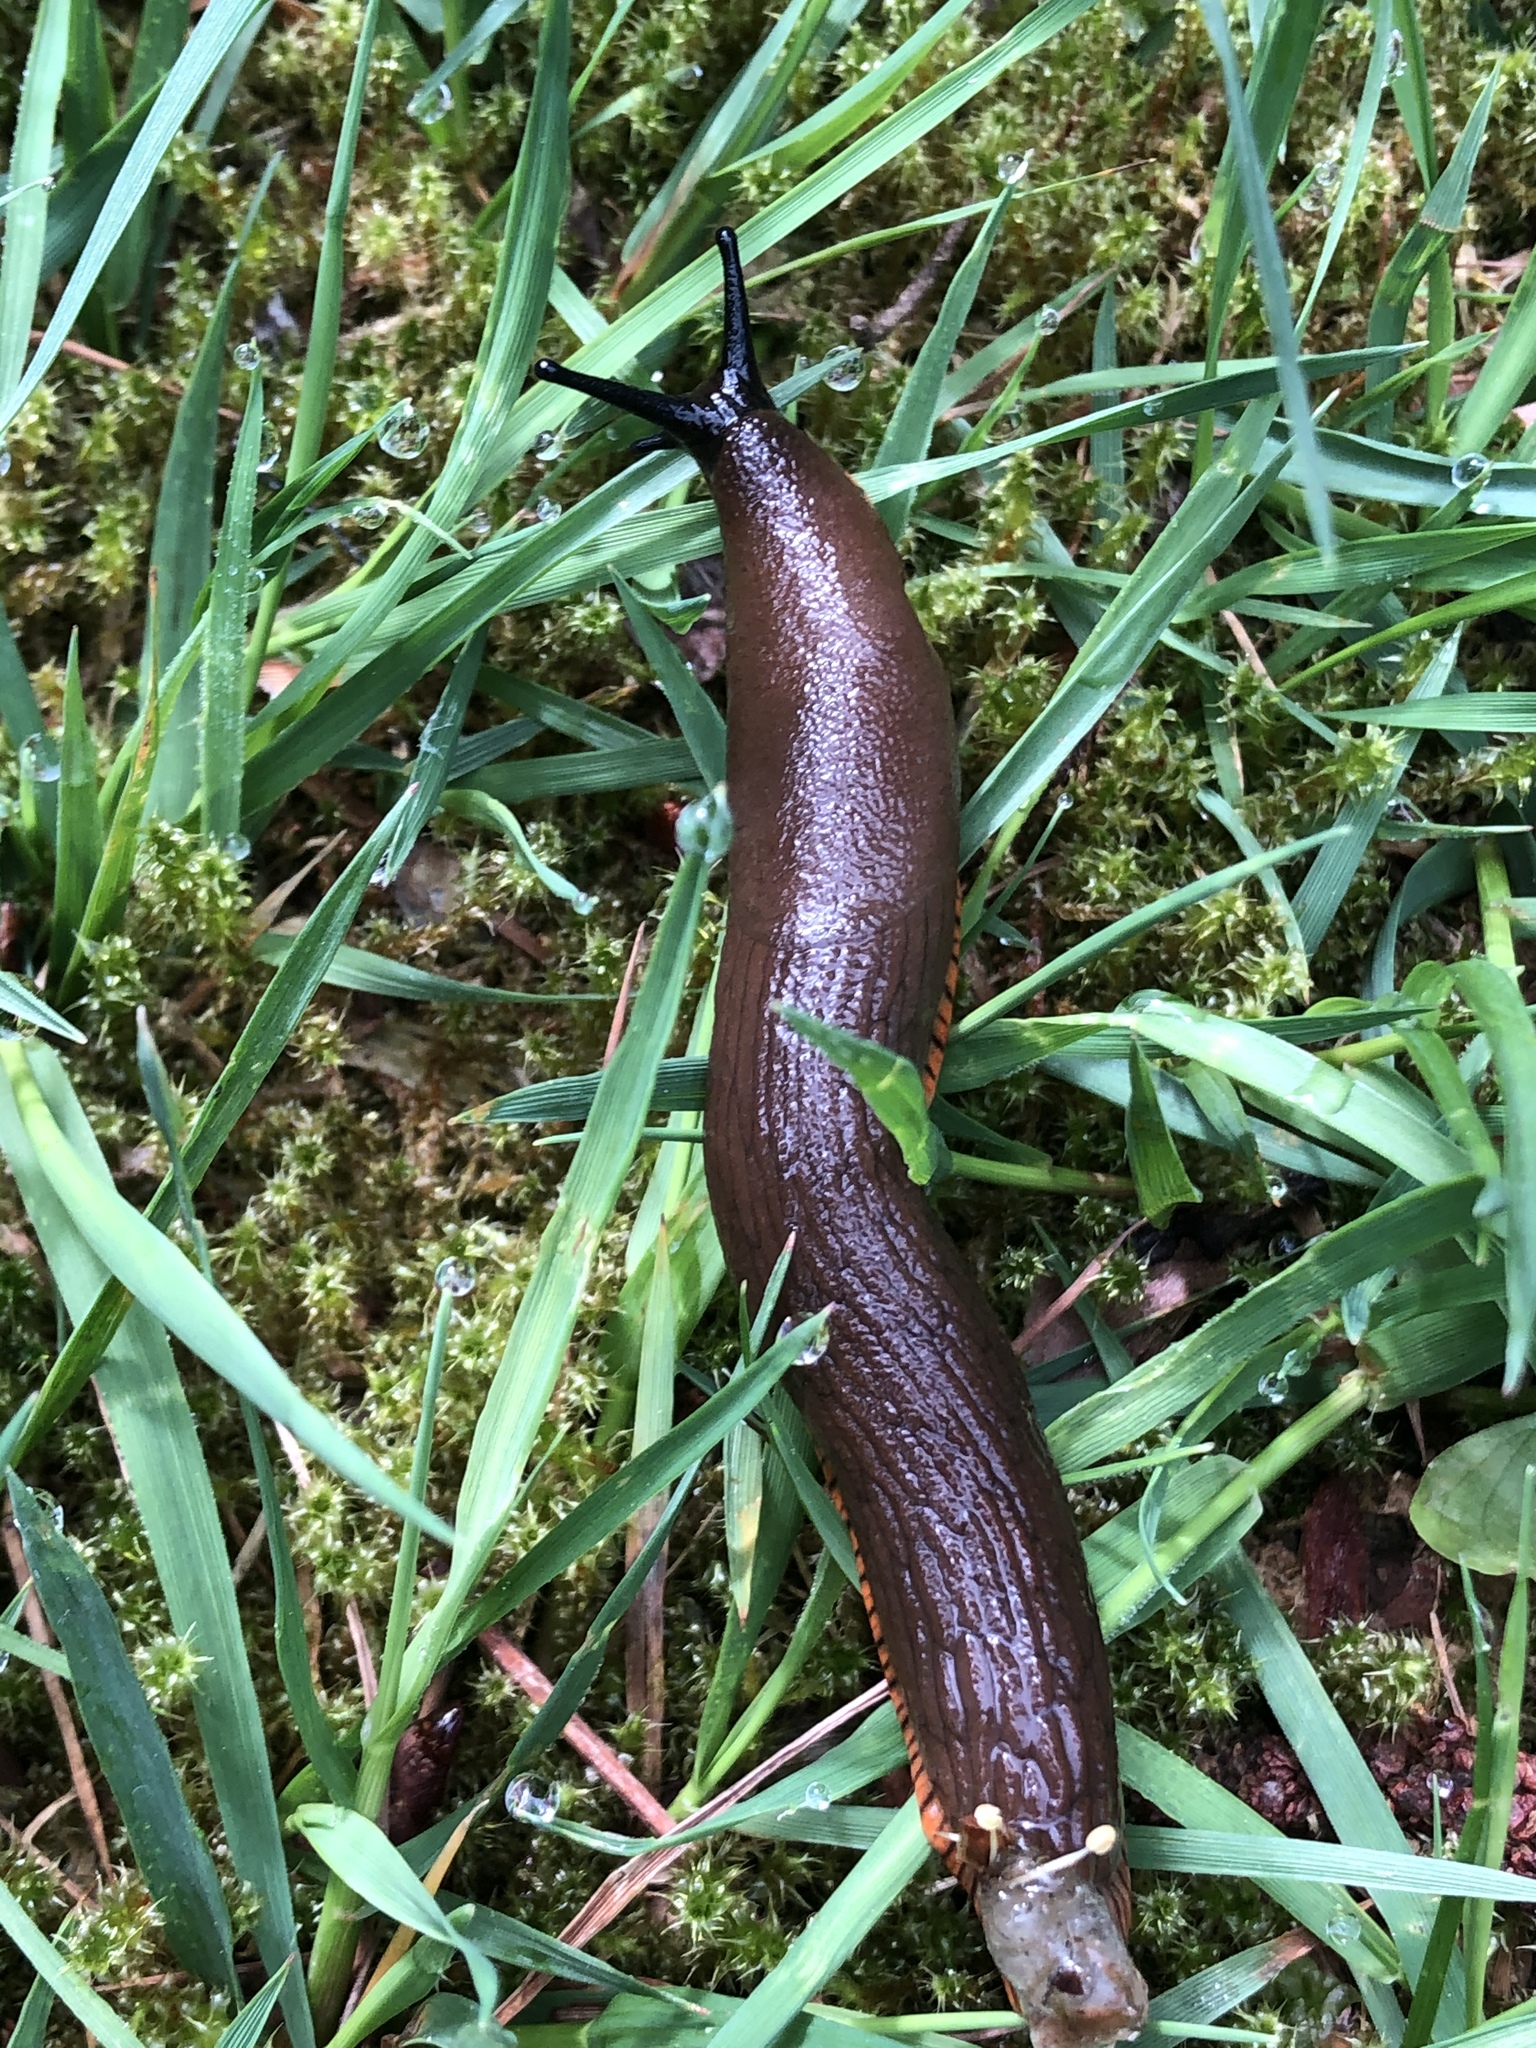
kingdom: Animalia
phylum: Mollusca
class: Gastropoda
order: Stylommatophora
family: Arionidae
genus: Arion
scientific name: Arion rufus
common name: Chocolate arion
